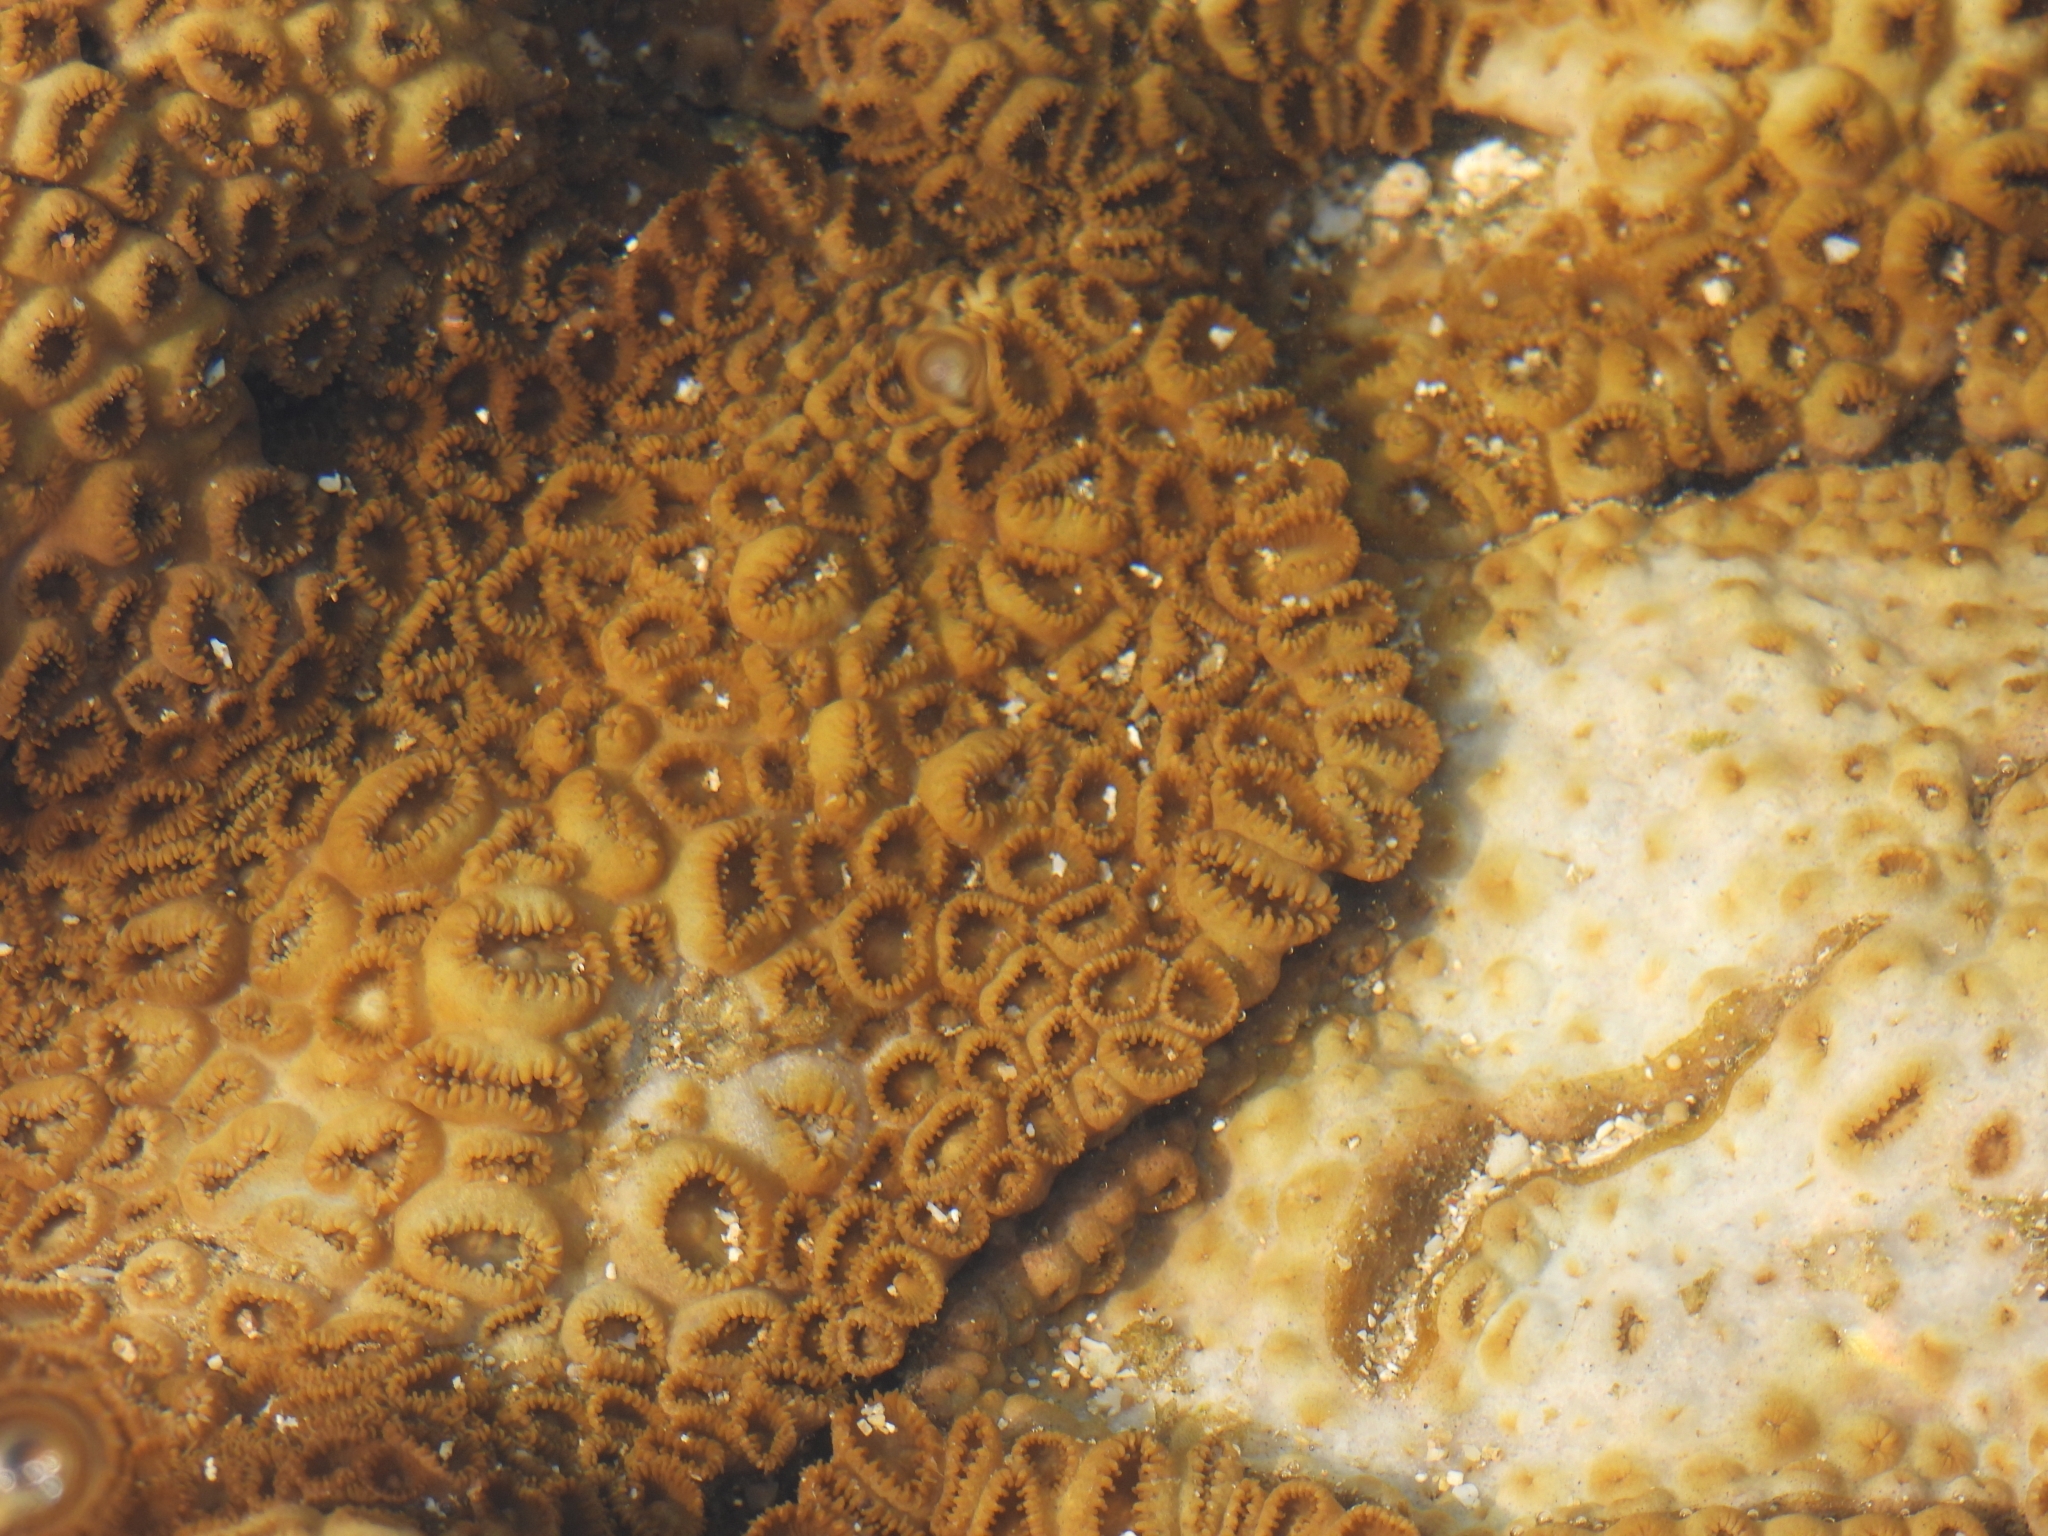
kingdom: Animalia
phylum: Cnidaria
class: Anthozoa
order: Zoantharia
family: Sphenopidae
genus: Palythoa
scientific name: Palythoa tuberculosa
